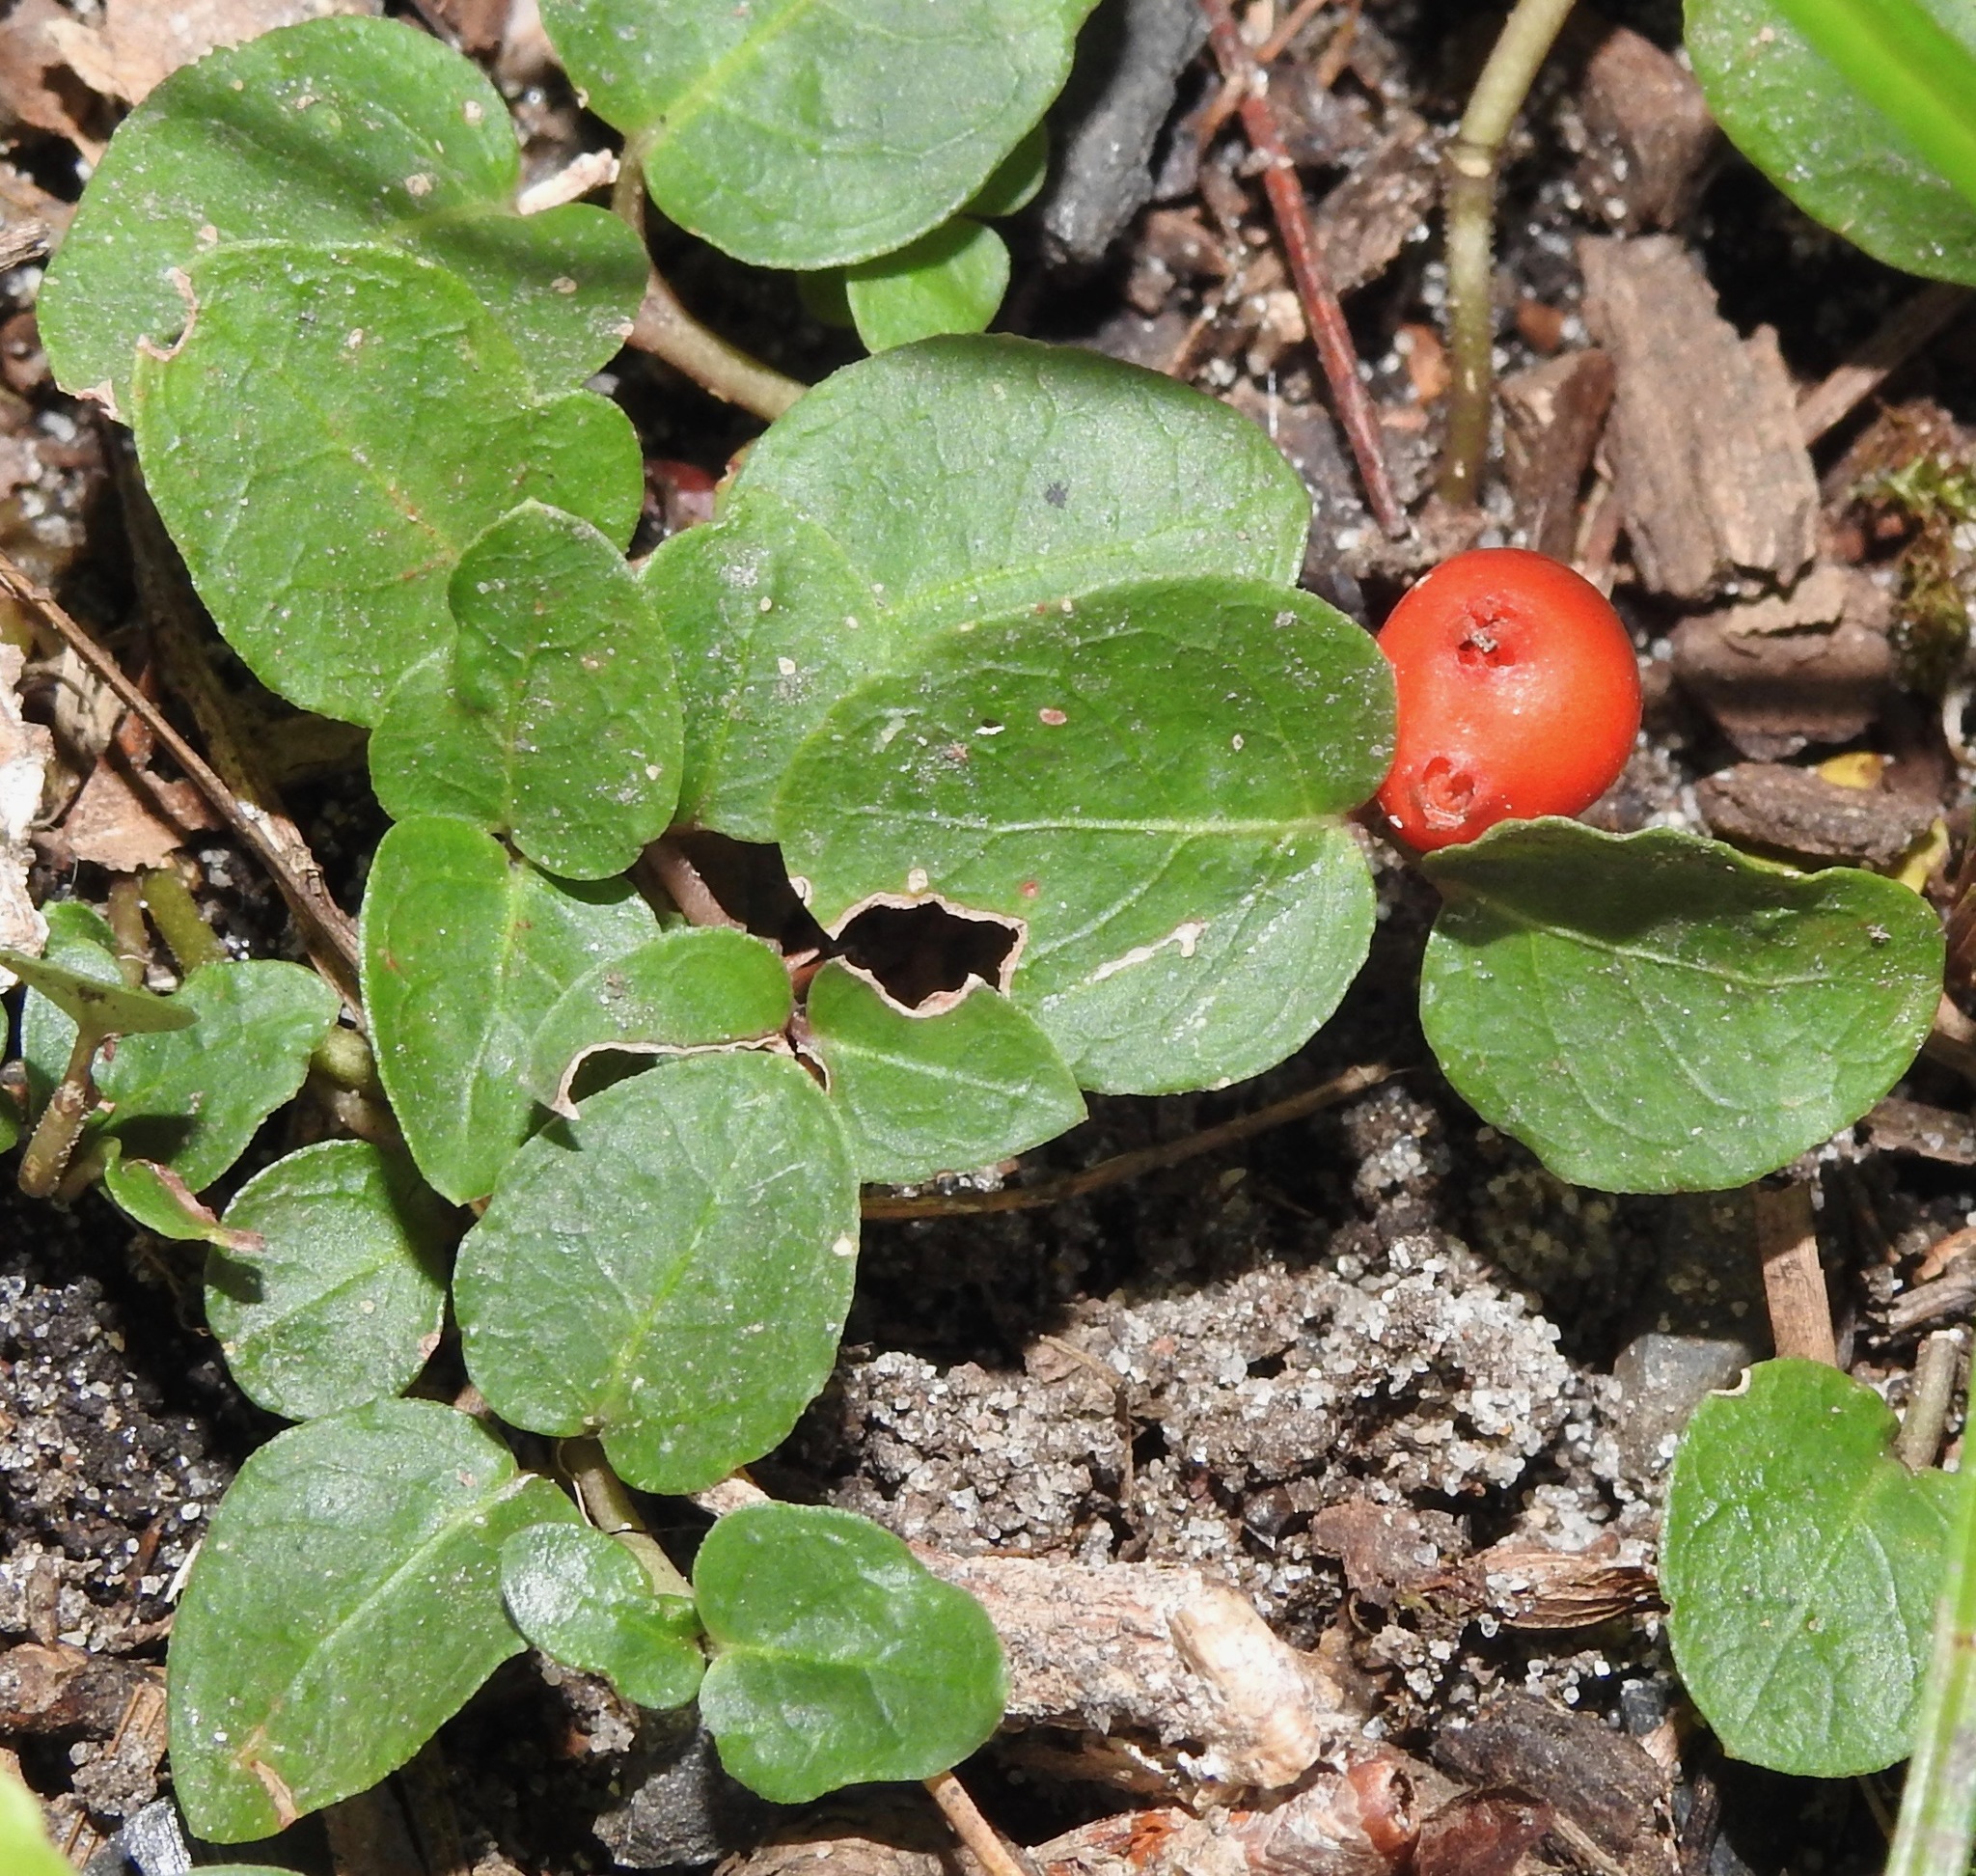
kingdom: Plantae
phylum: Tracheophyta
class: Magnoliopsida
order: Gentianales
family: Rubiaceae
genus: Mitchella
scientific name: Mitchella repens
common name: Partridge-berry
